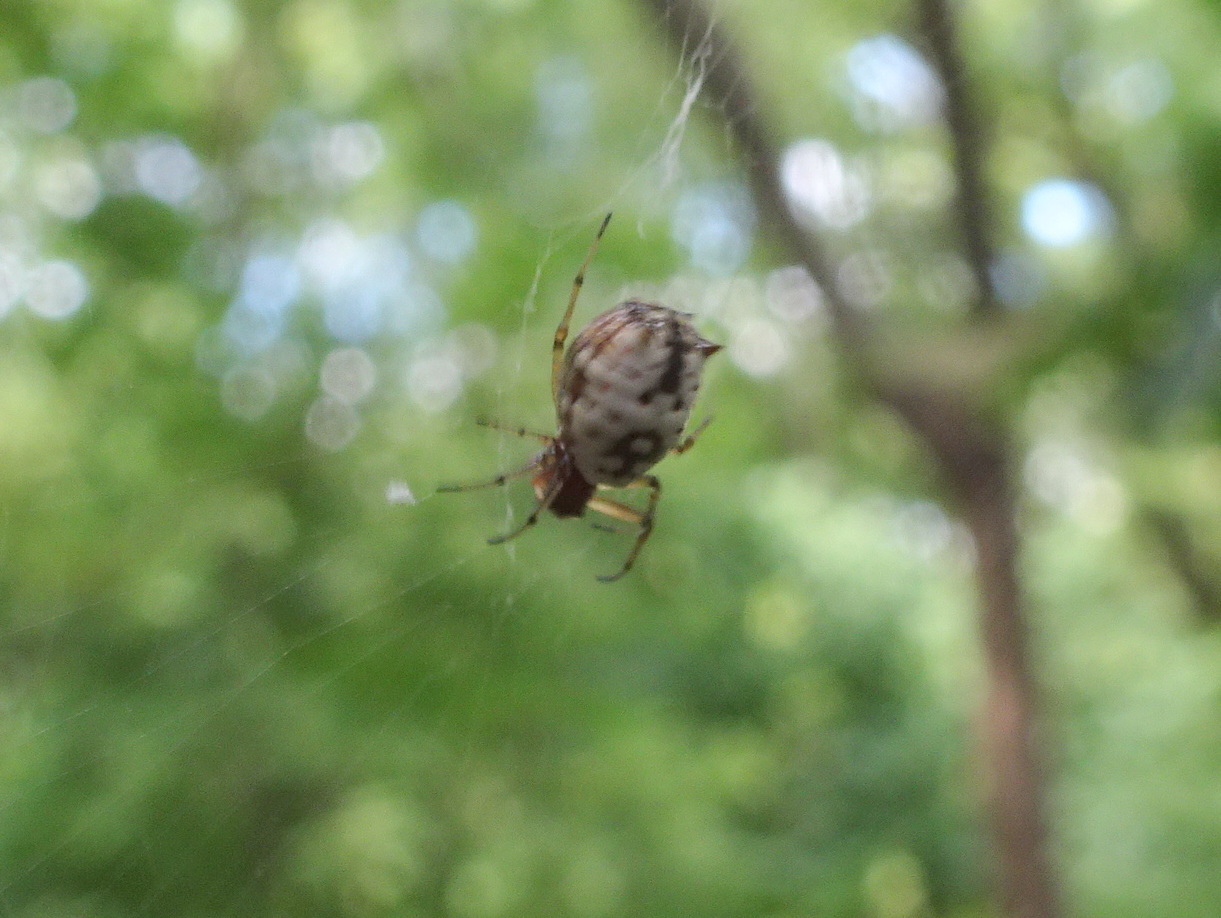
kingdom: Animalia
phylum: Arthropoda
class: Arachnida
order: Araneae
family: Araneidae
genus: Micrathena
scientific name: Micrathena mitrata
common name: Orb weavers
